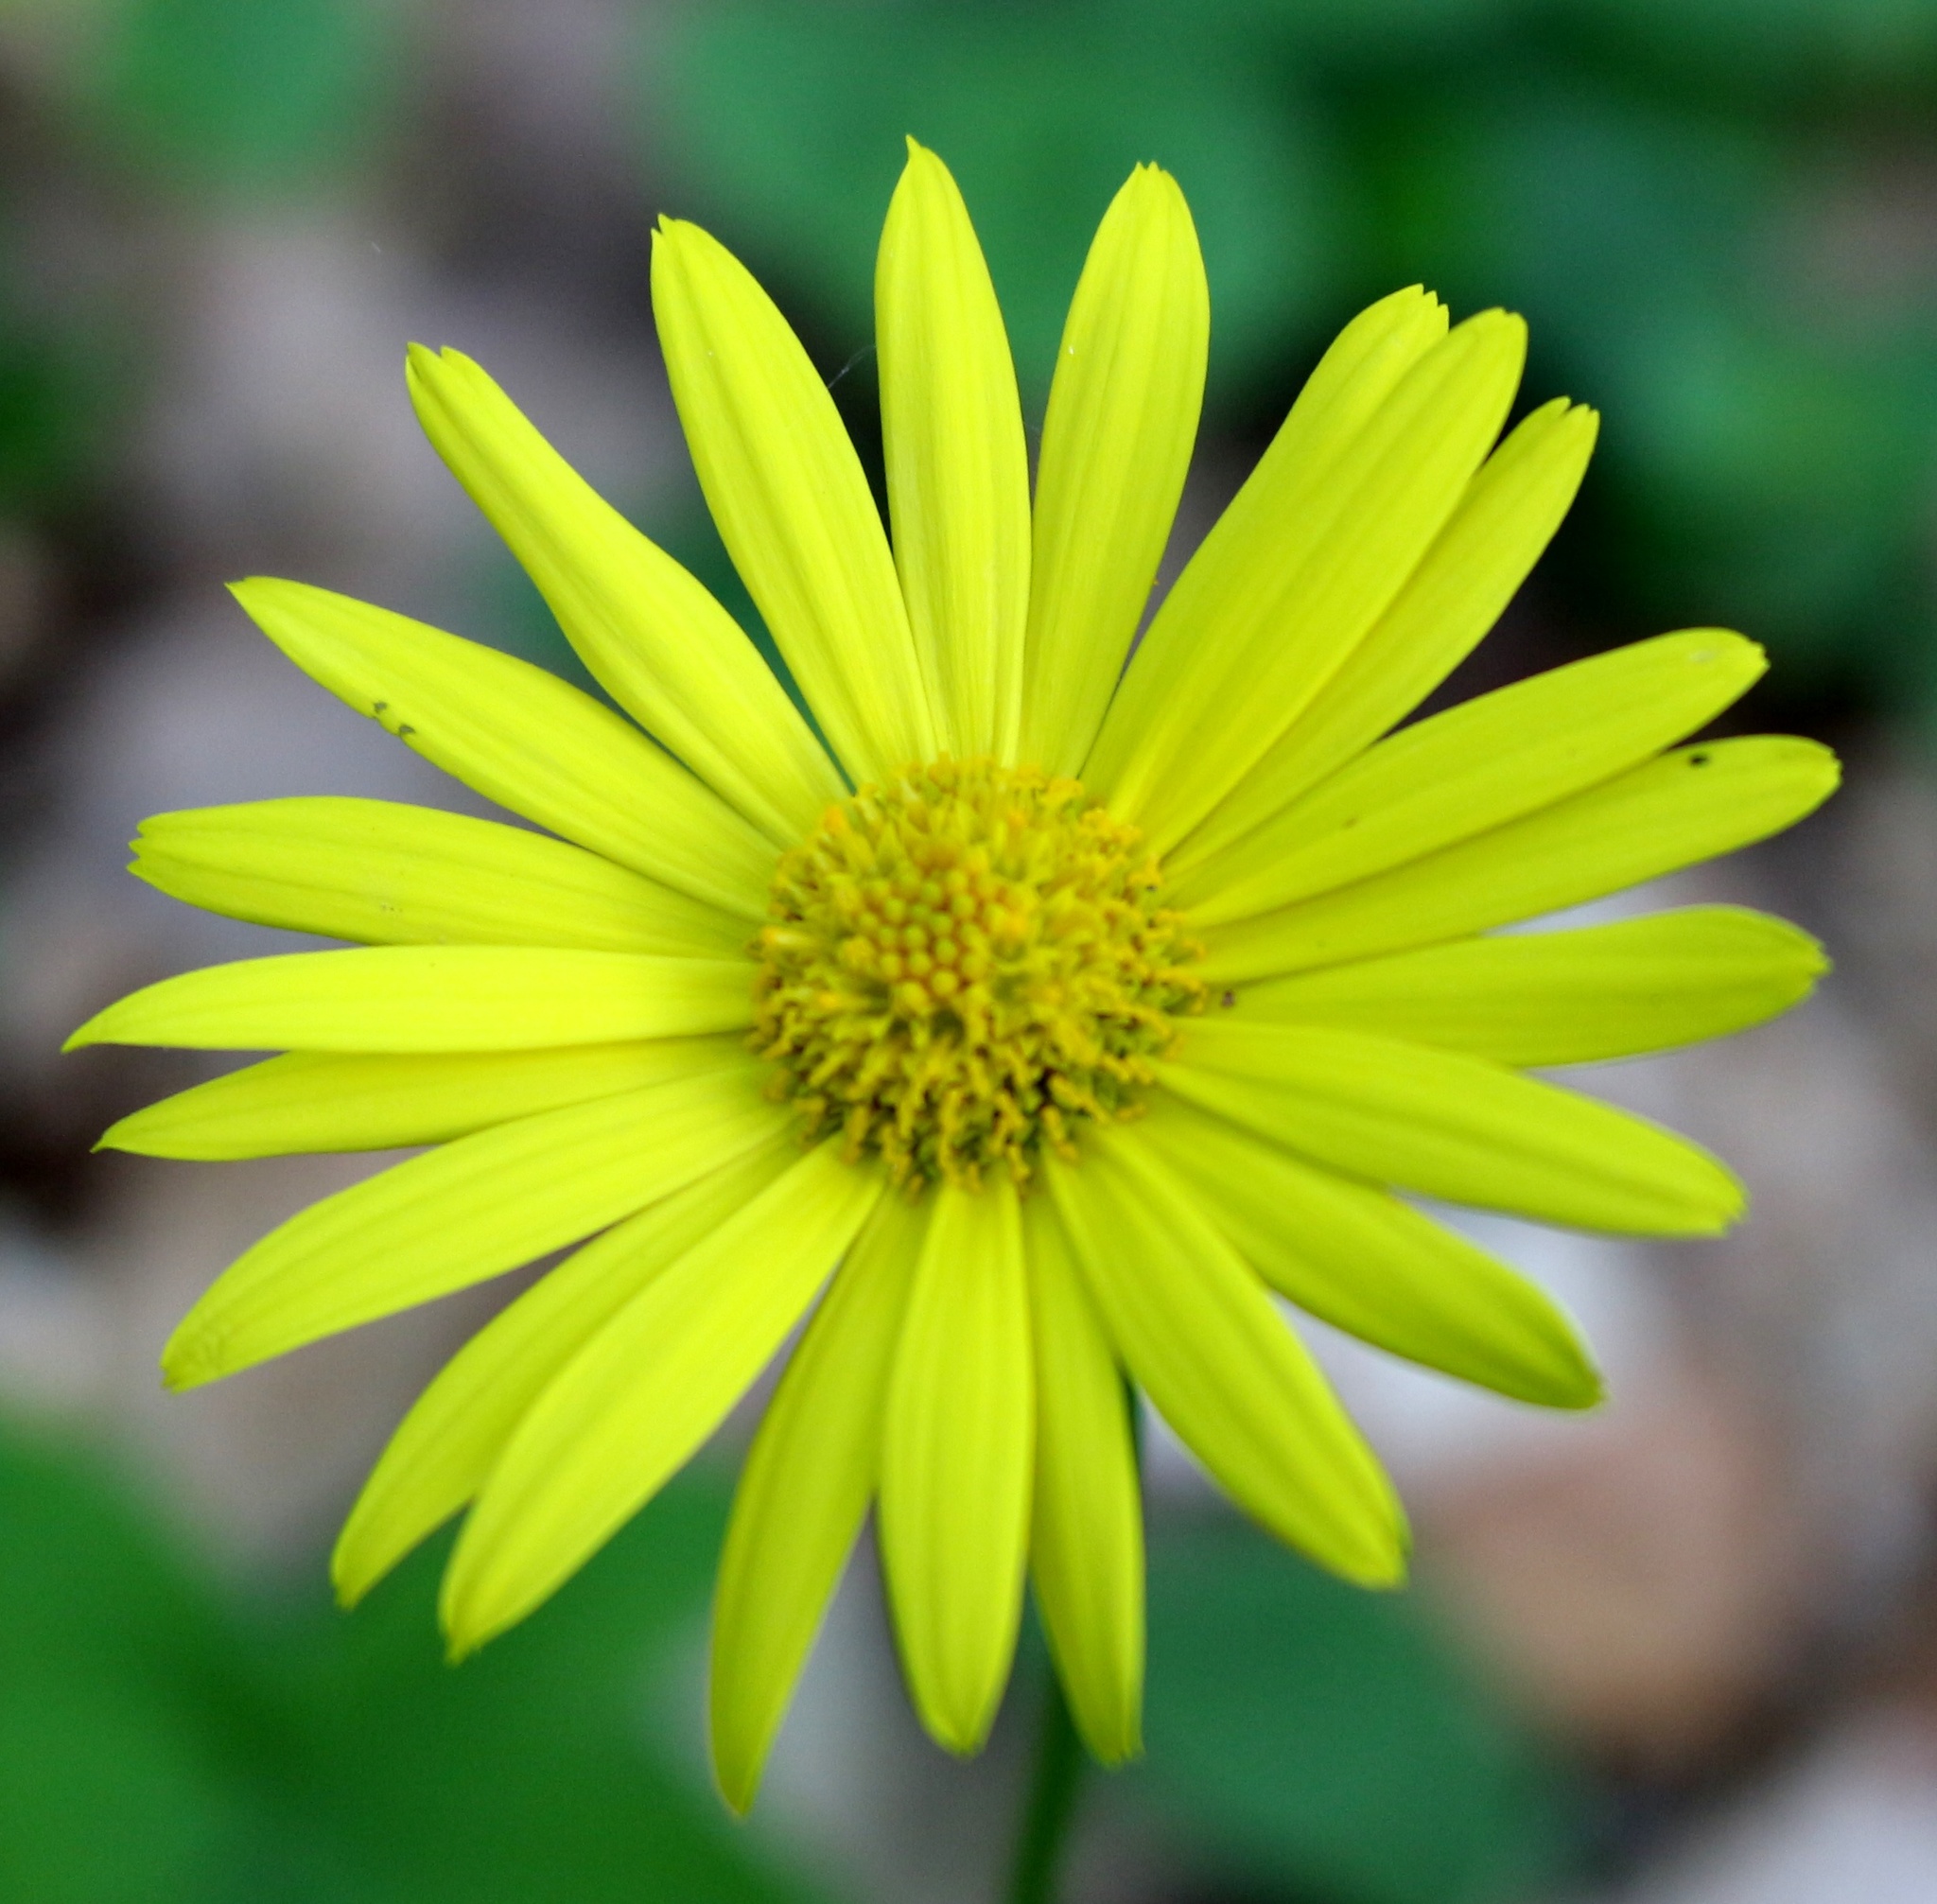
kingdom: Plantae
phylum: Tracheophyta
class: Magnoliopsida
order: Asterales
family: Asteraceae
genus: Doronicum
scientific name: Doronicum
